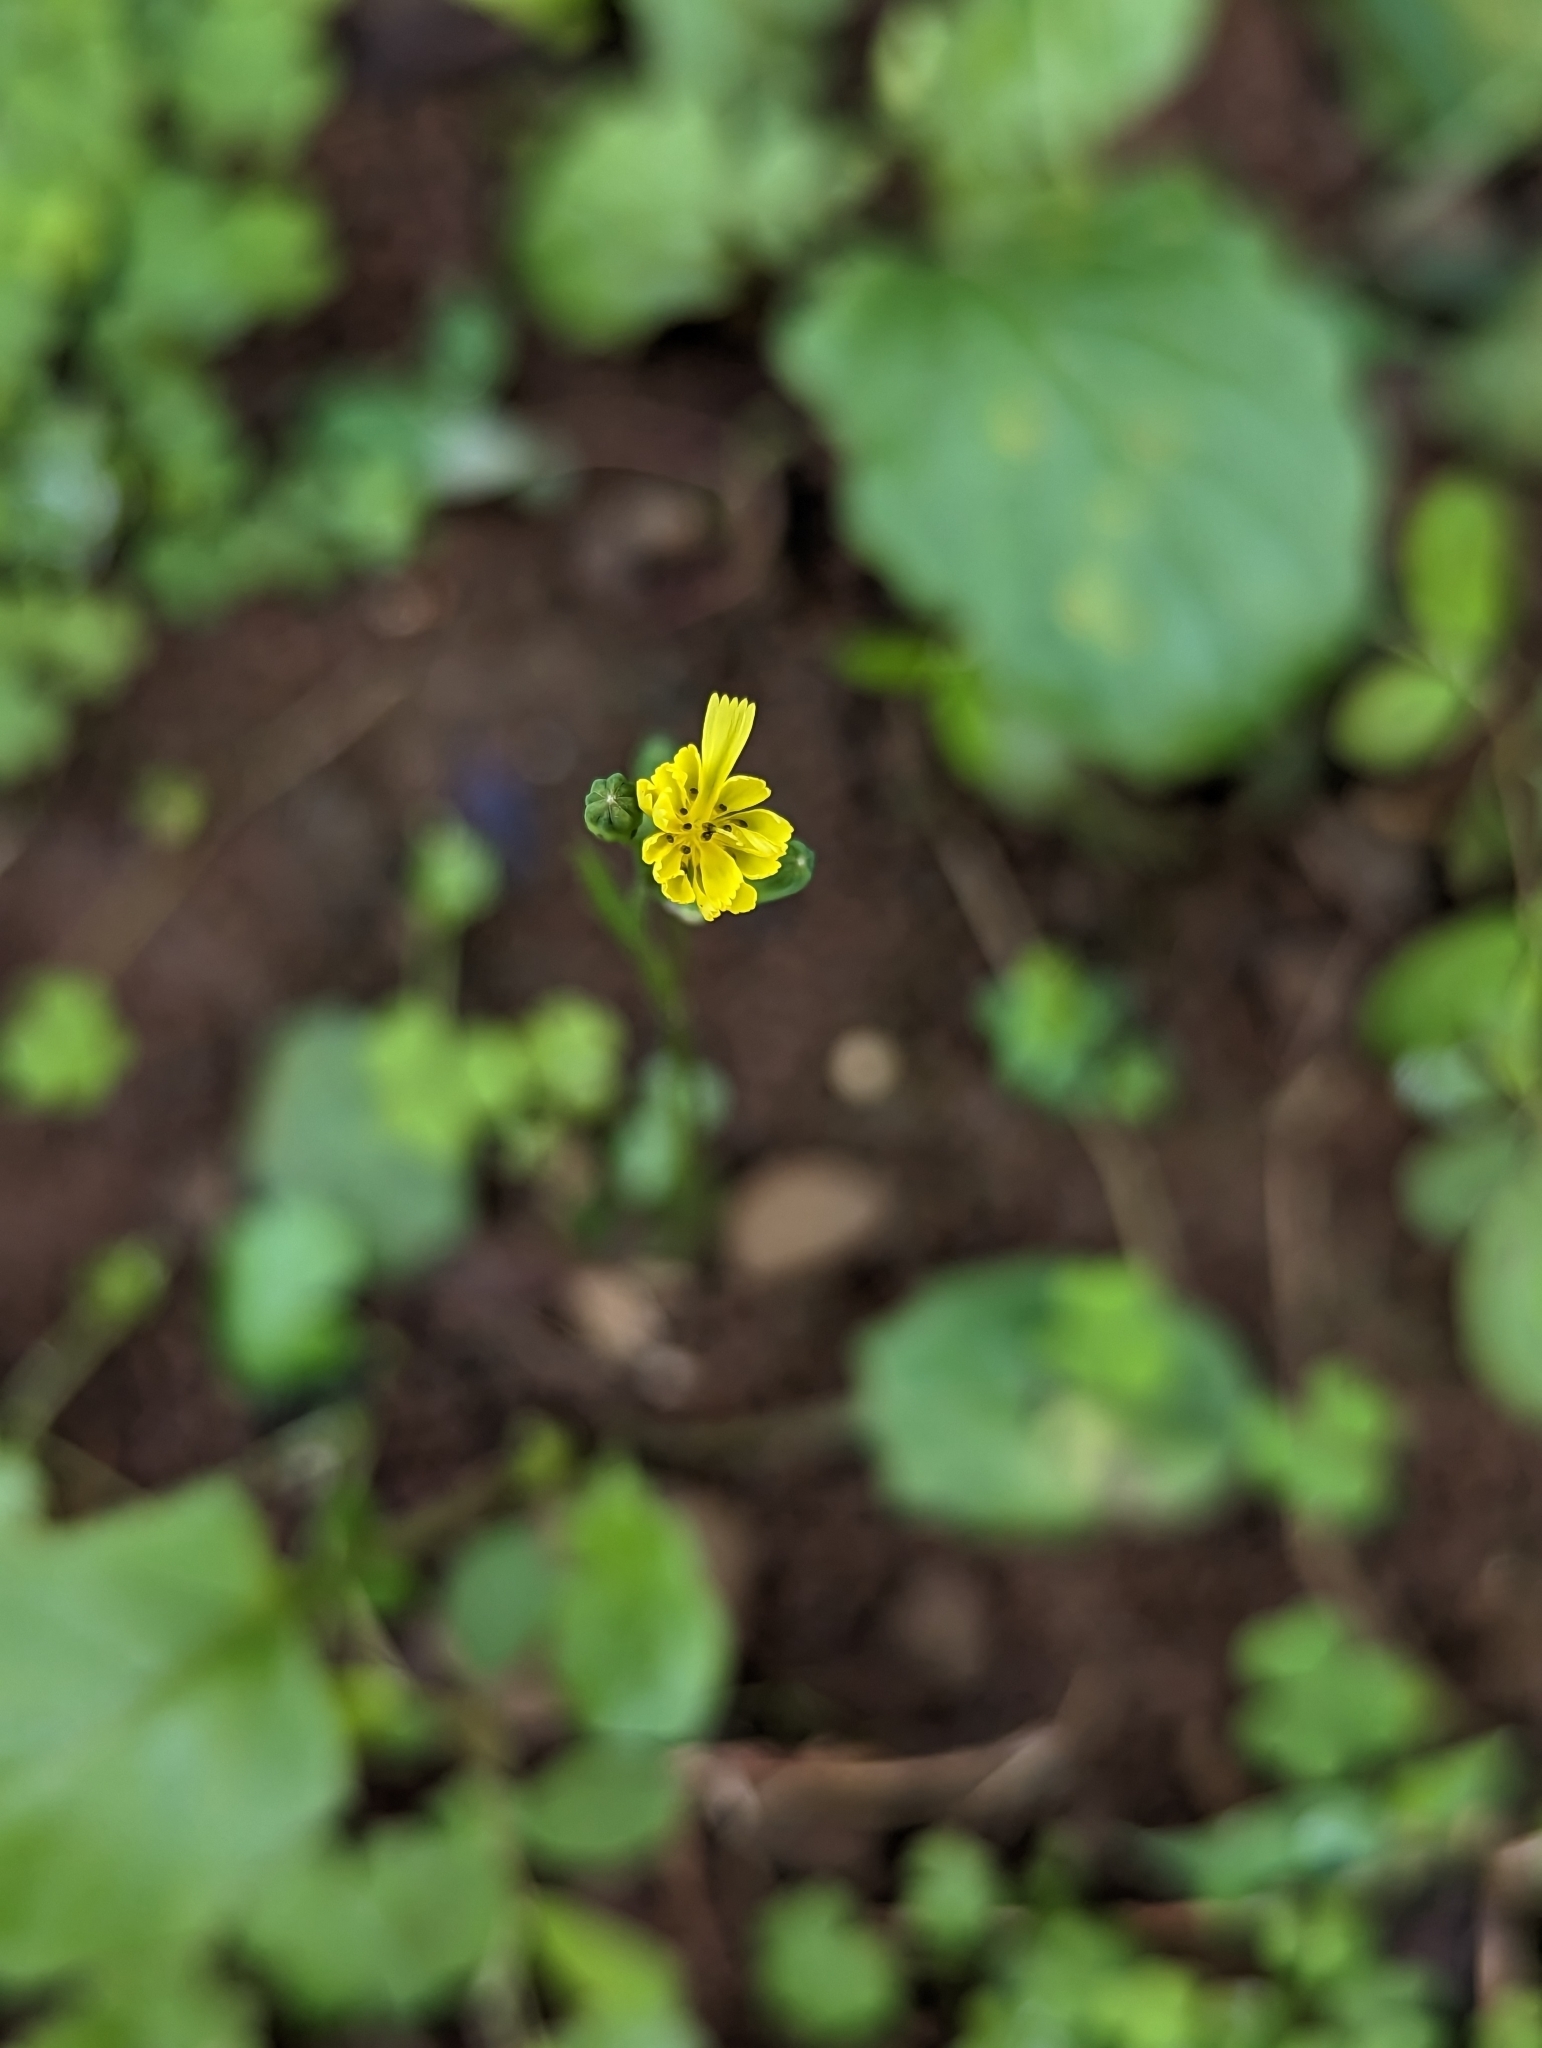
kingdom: Plantae
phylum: Tracheophyta
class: Magnoliopsida
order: Asterales
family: Asteraceae
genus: Youngia
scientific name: Youngia japonica
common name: Oriental false hawksbeard
